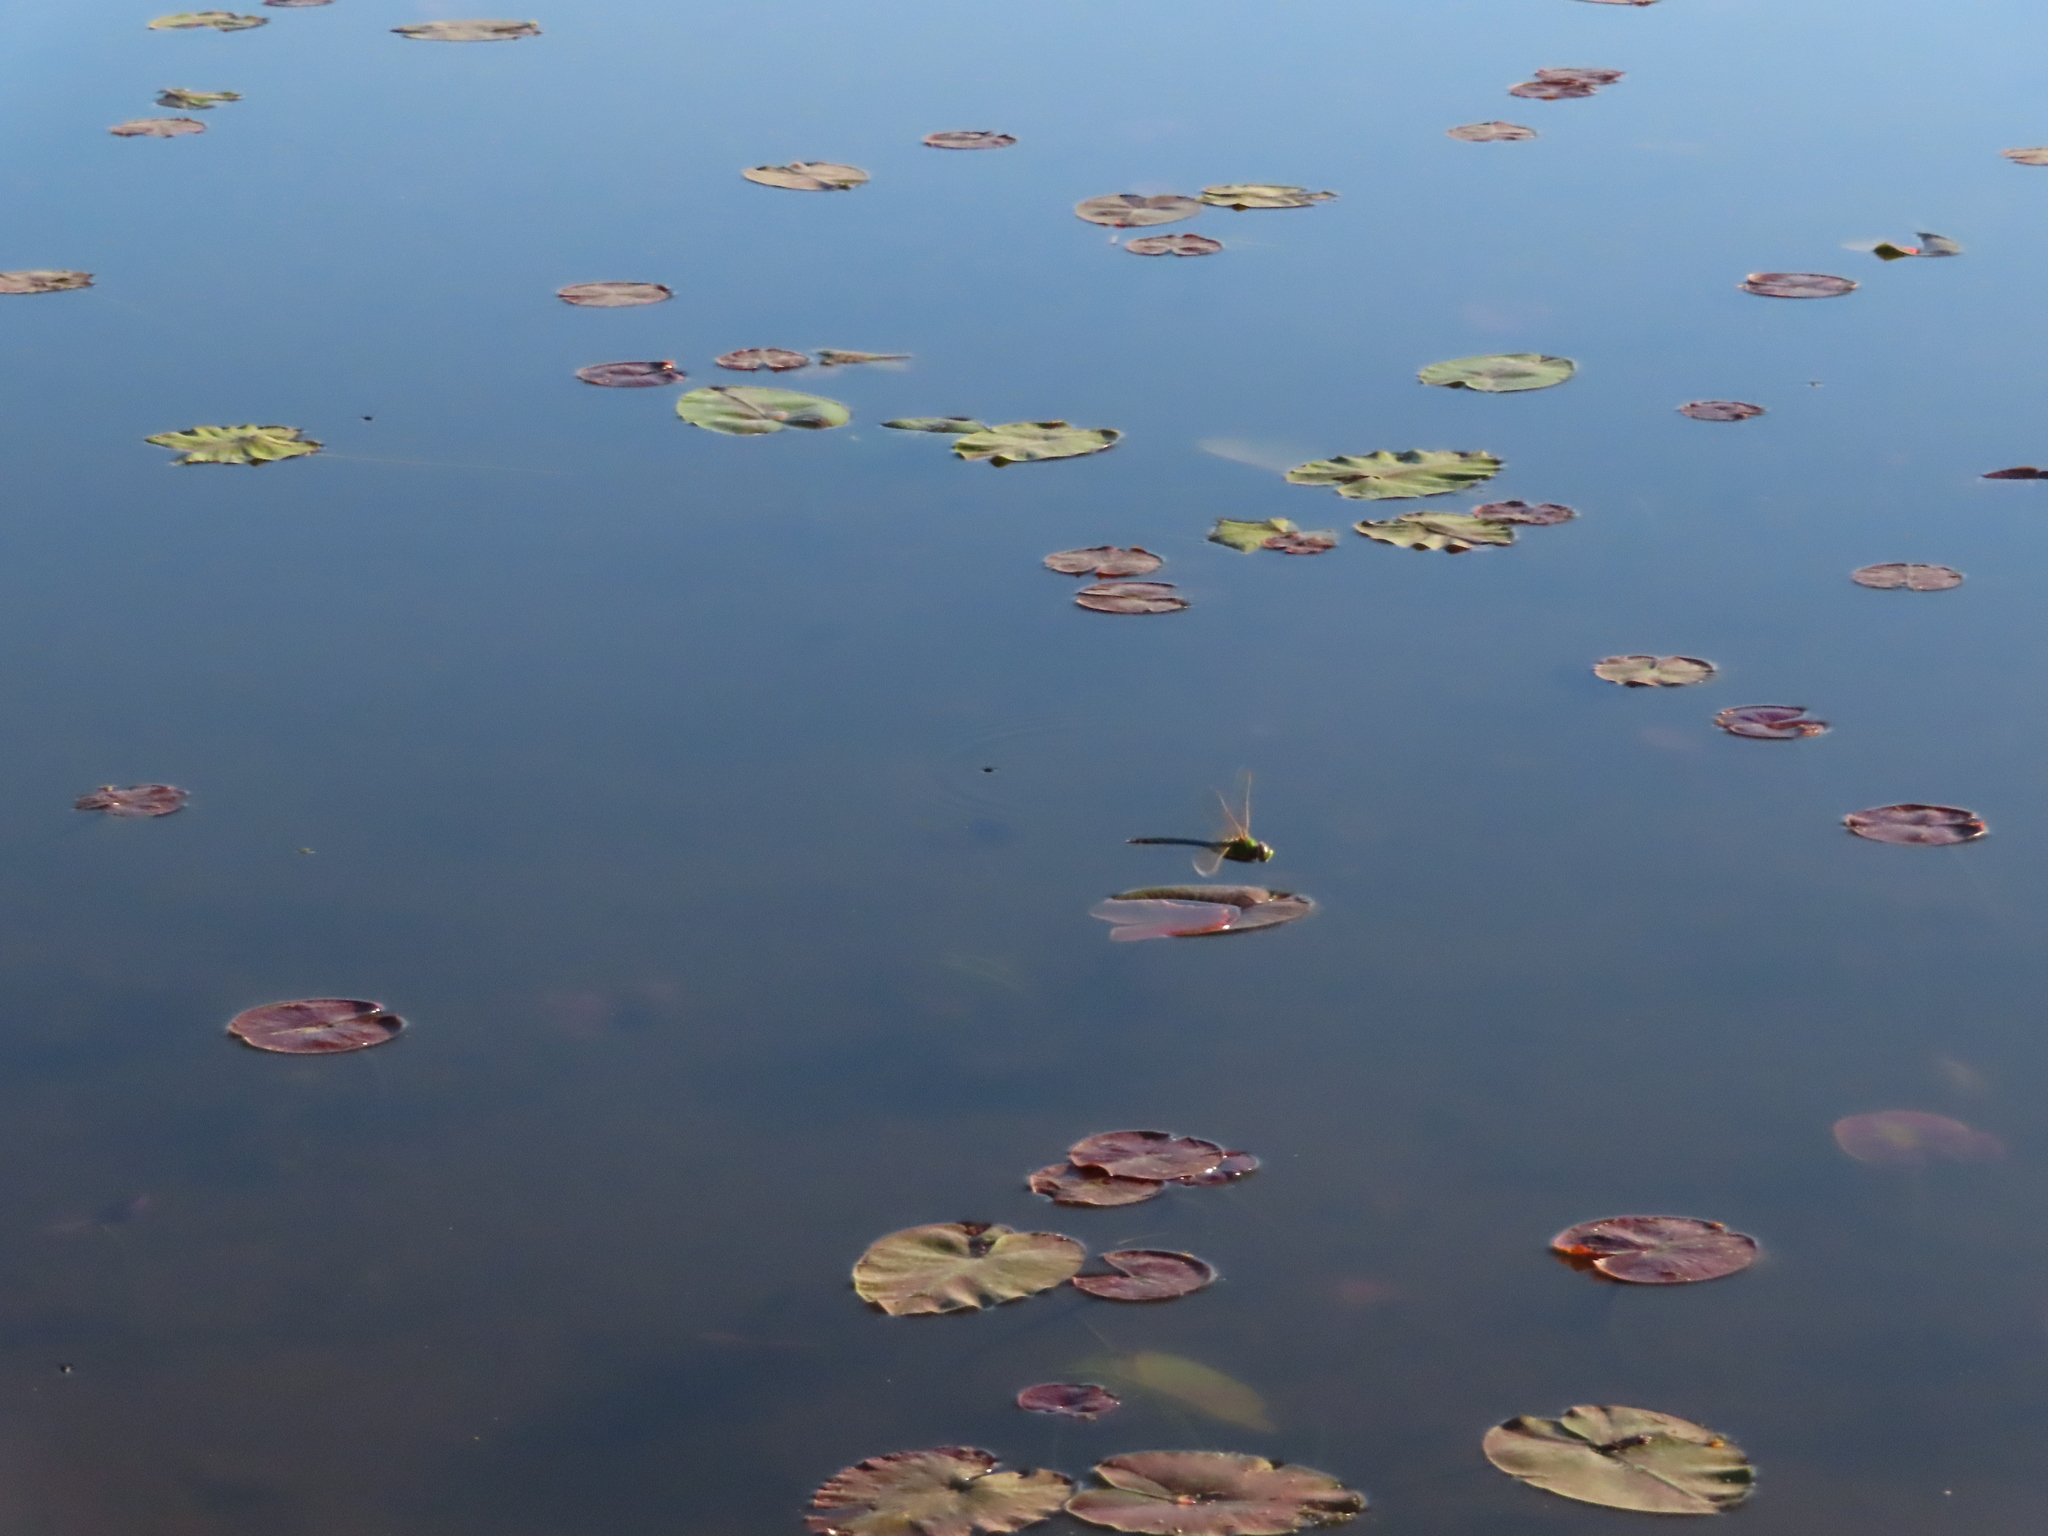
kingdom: Animalia
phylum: Arthropoda
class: Insecta
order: Odonata
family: Aeshnidae
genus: Anax
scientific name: Anax junius
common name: Common green darner
